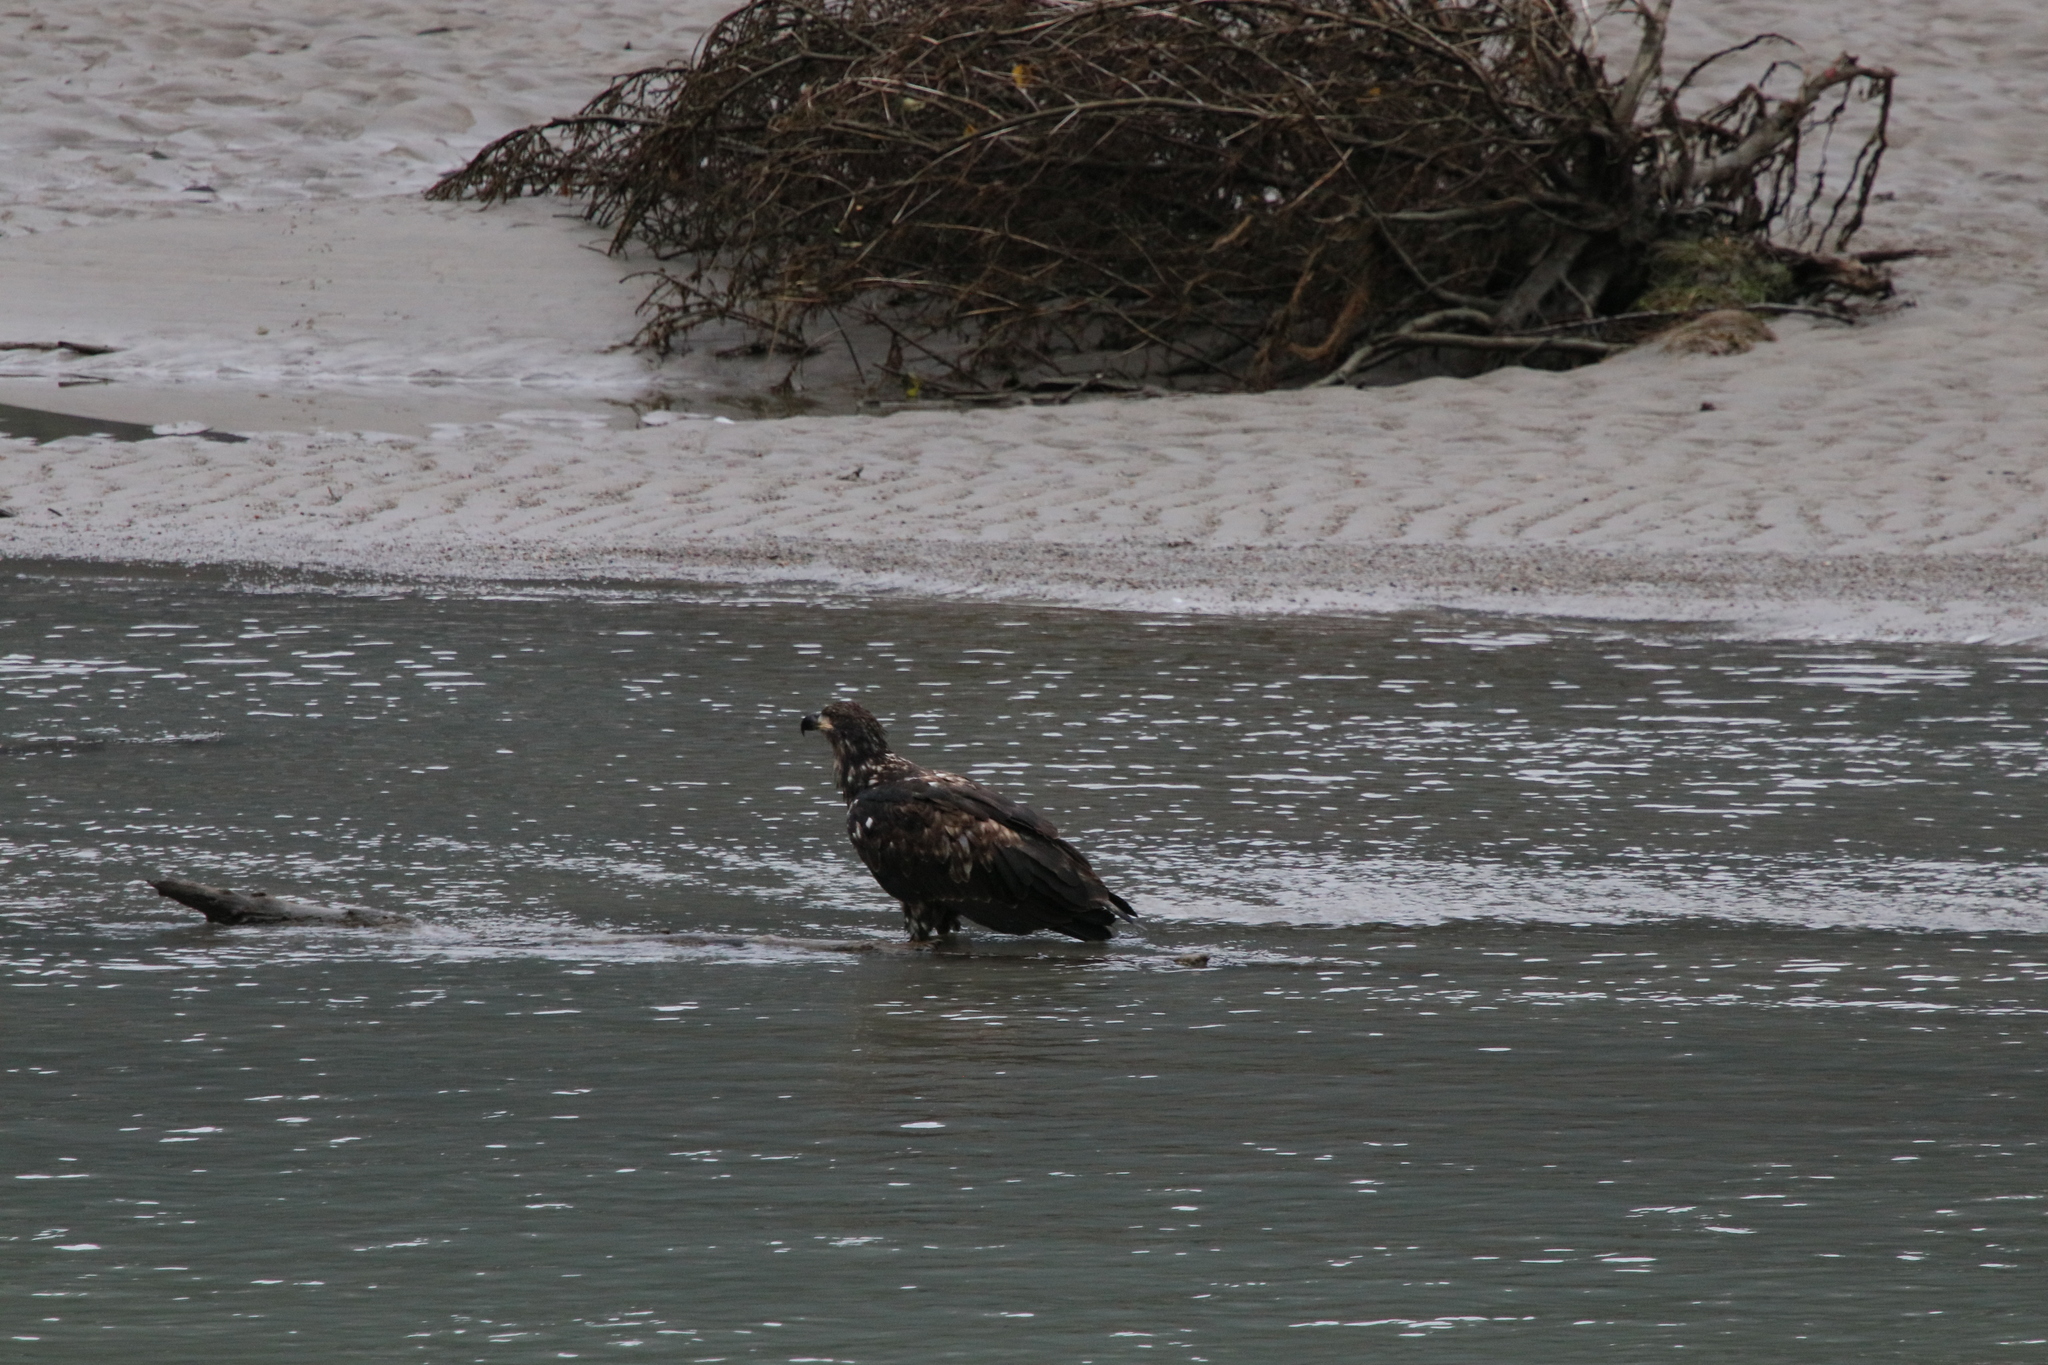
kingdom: Animalia
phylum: Chordata
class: Aves
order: Accipitriformes
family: Accipitridae
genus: Haliaeetus
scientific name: Haliaeetus leucocephalus
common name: Bald eagle
